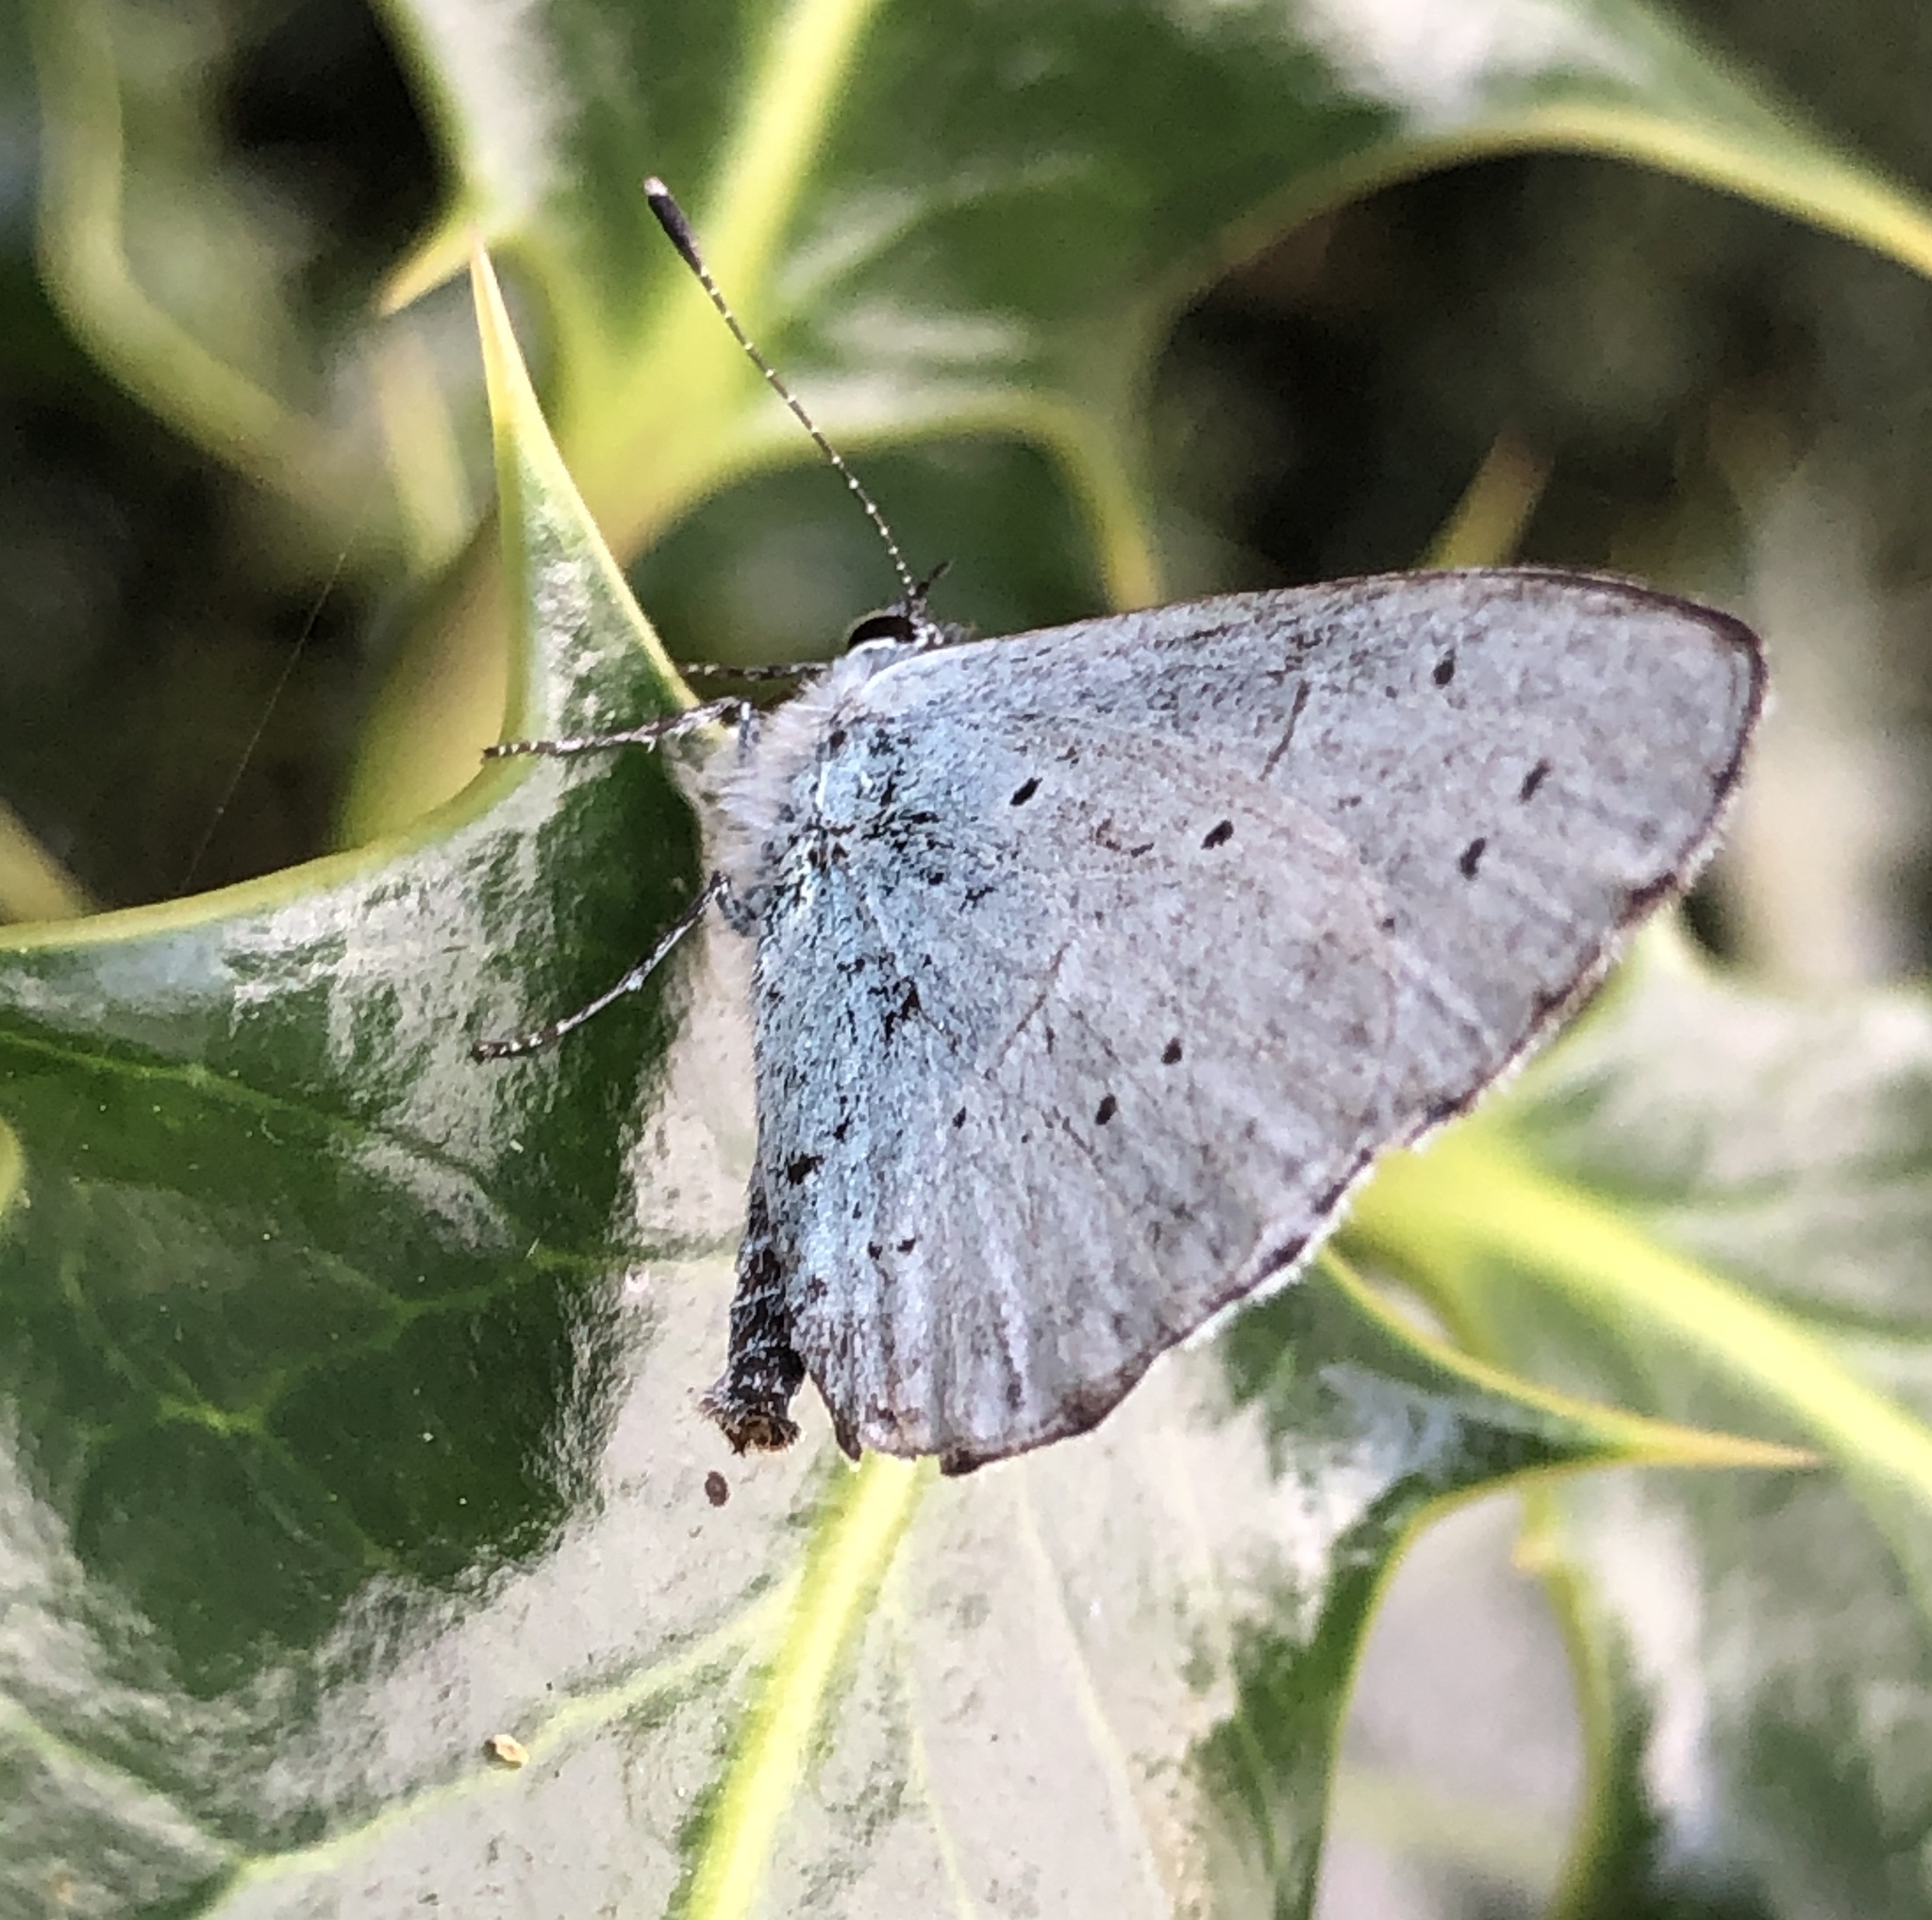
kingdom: Animalia
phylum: Arthropoda
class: Insecta
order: Lepidoptera
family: Lycaenidae
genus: Celastrina
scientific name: Celastrina argiolus
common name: Holly blue
